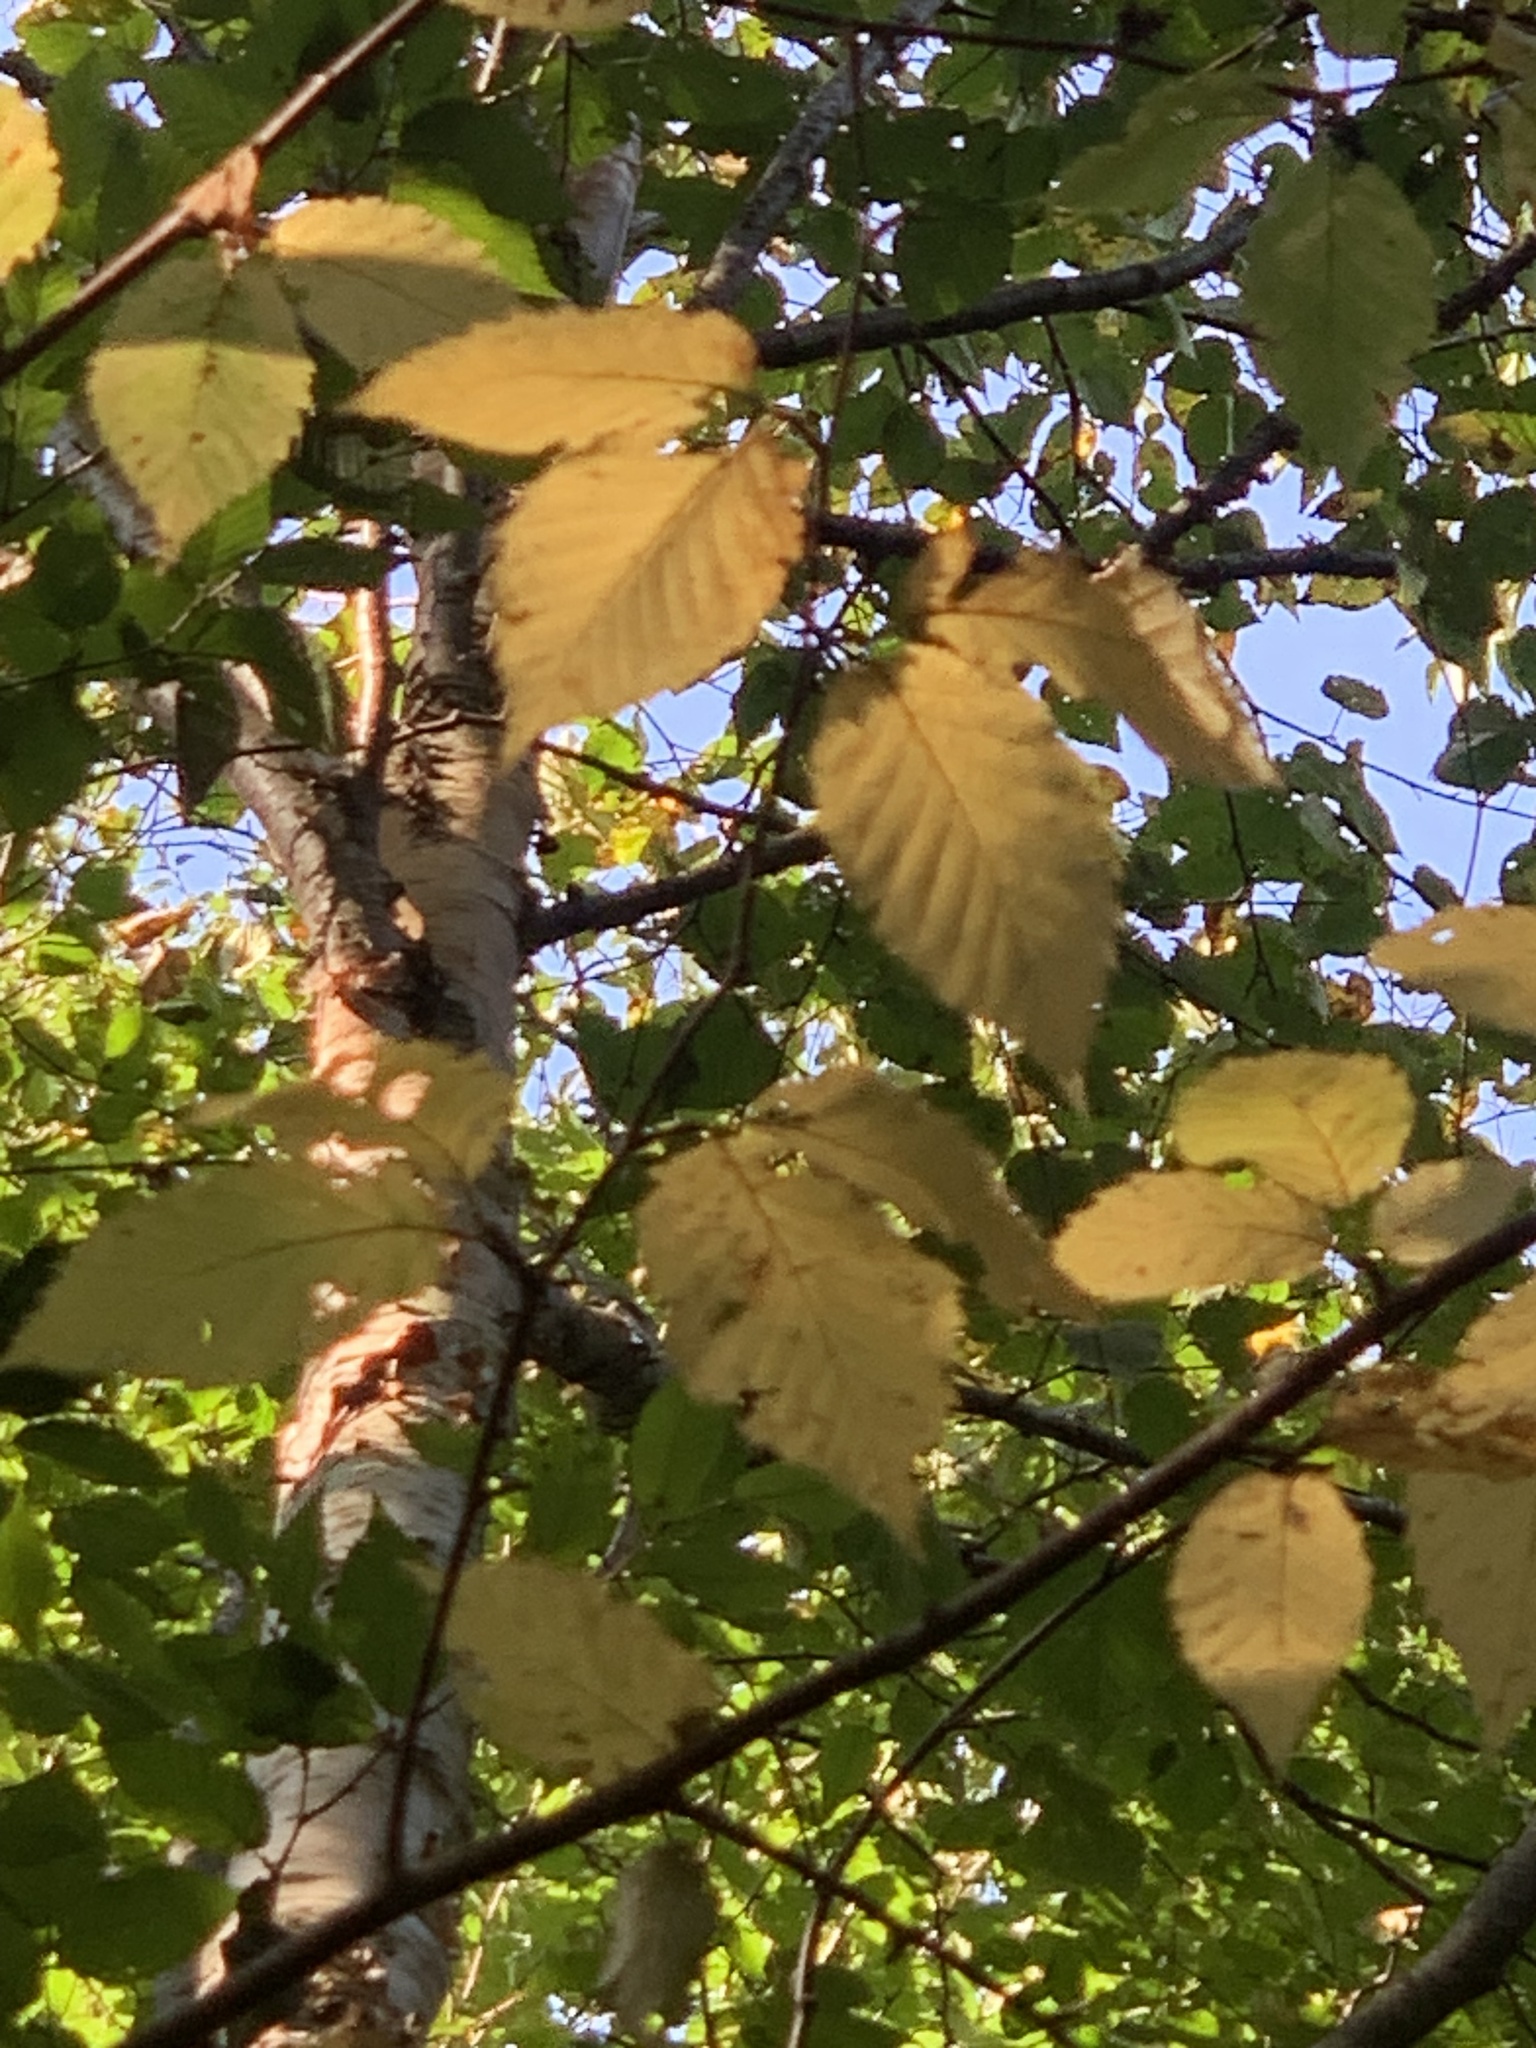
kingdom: Plantae
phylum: Tracheophyta
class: Magnoliopsida
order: Fagales
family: Betulaceae
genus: Betula
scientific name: Betula alleghaniensis
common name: Yellow birch
